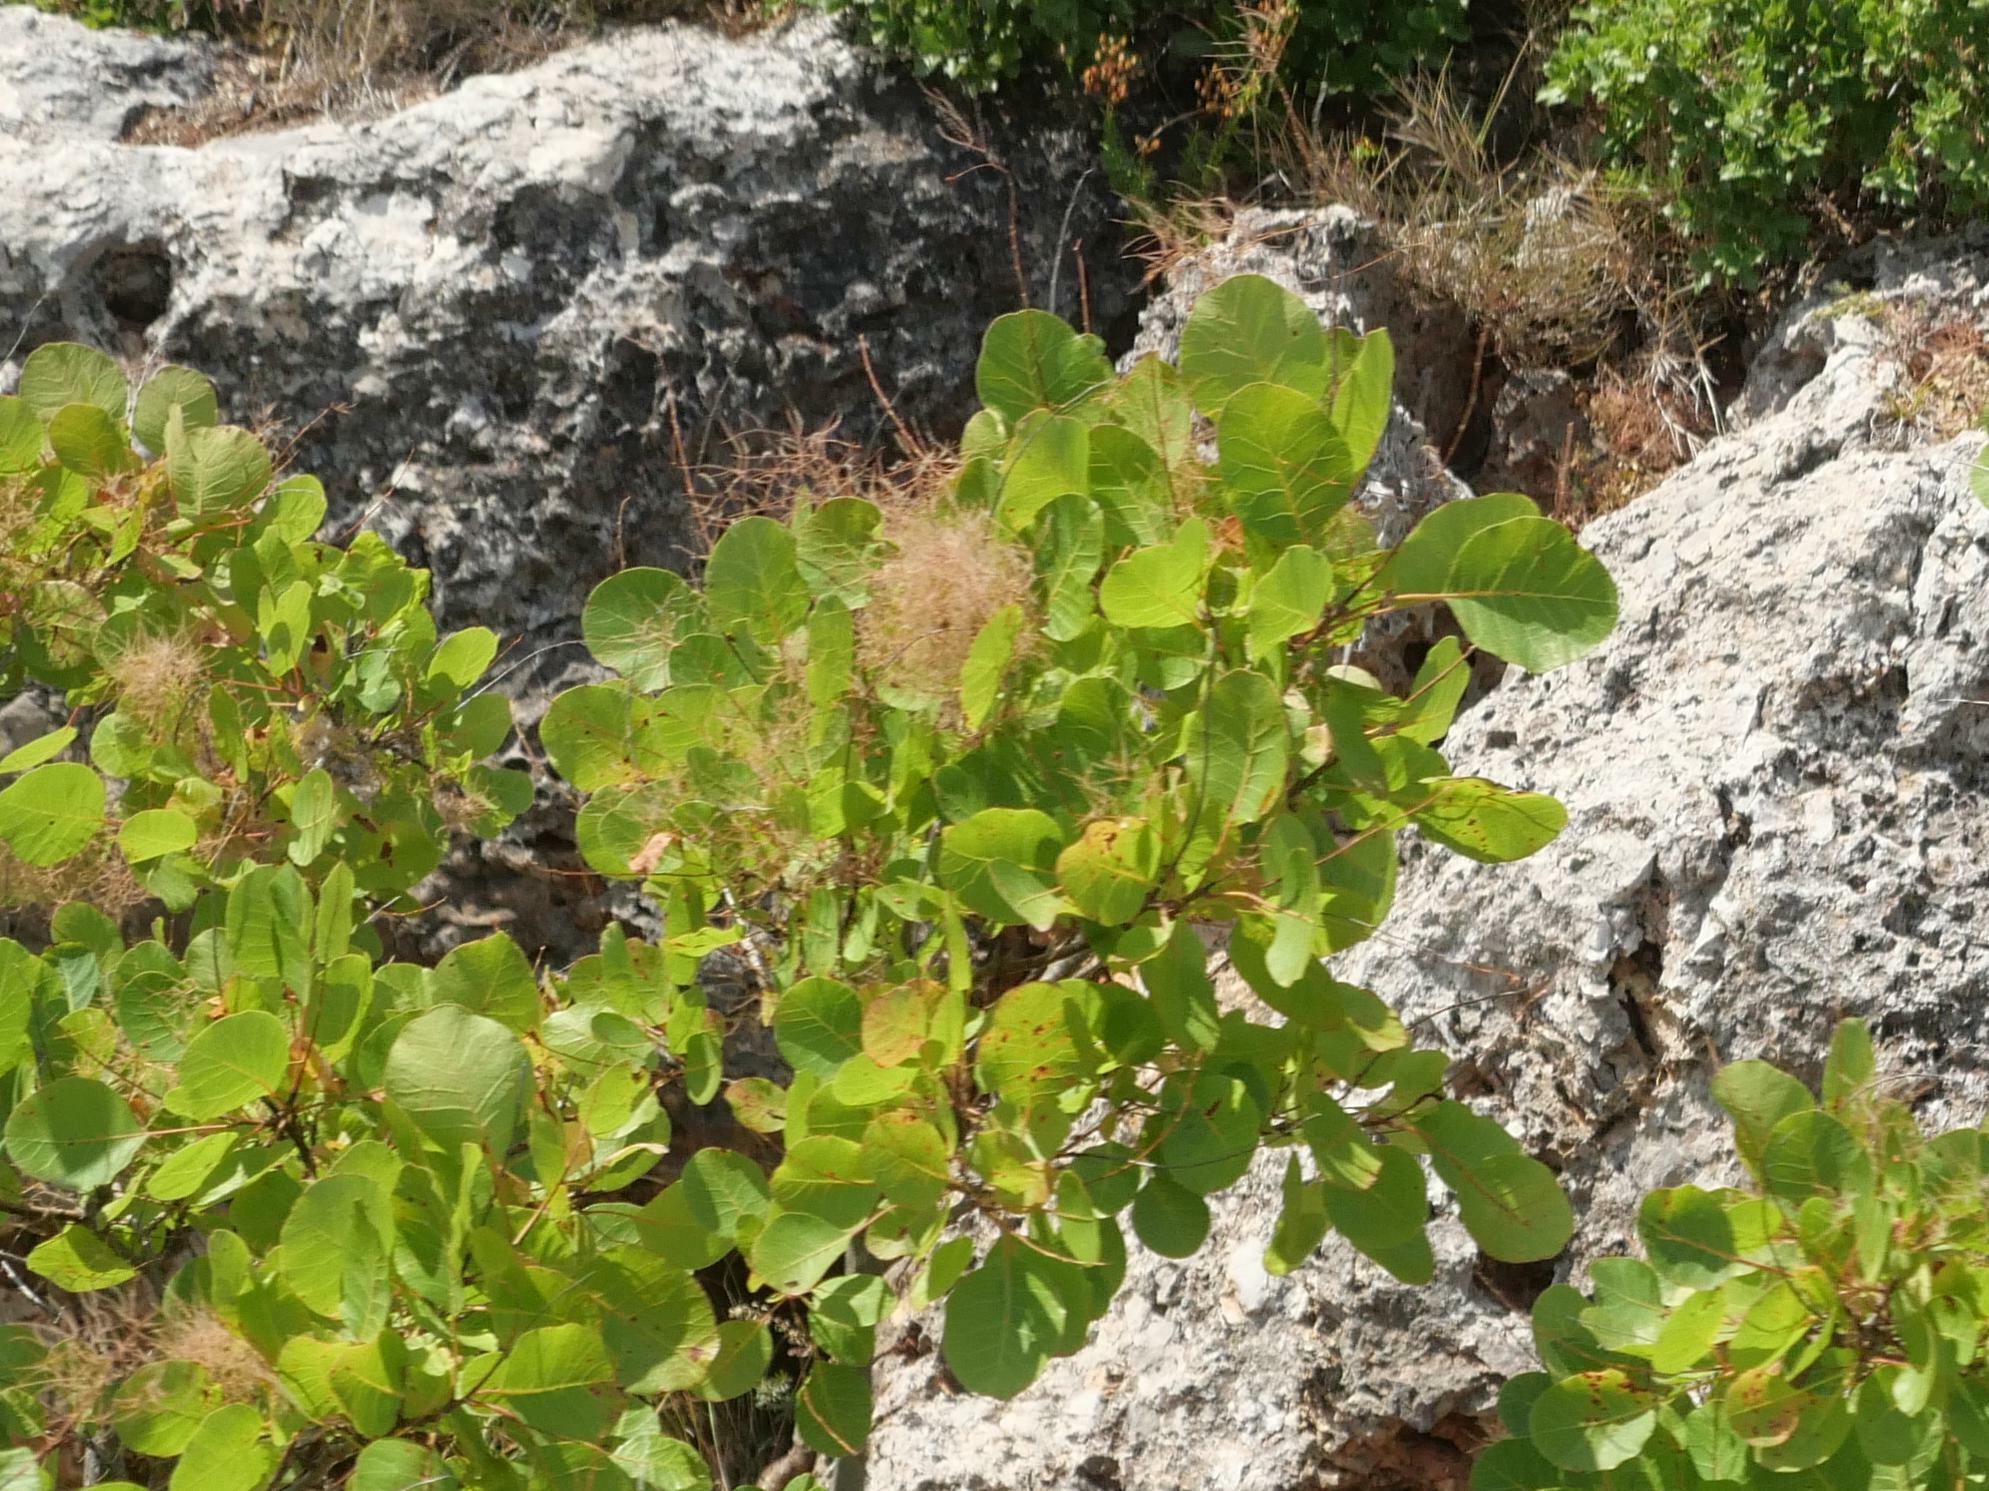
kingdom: Plantae
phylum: Tracheophyta
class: Magnoliopsida
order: Sapindales
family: Anacardiaceae
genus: Cotinus
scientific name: Cotinus coggygria
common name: Smoke-tree
